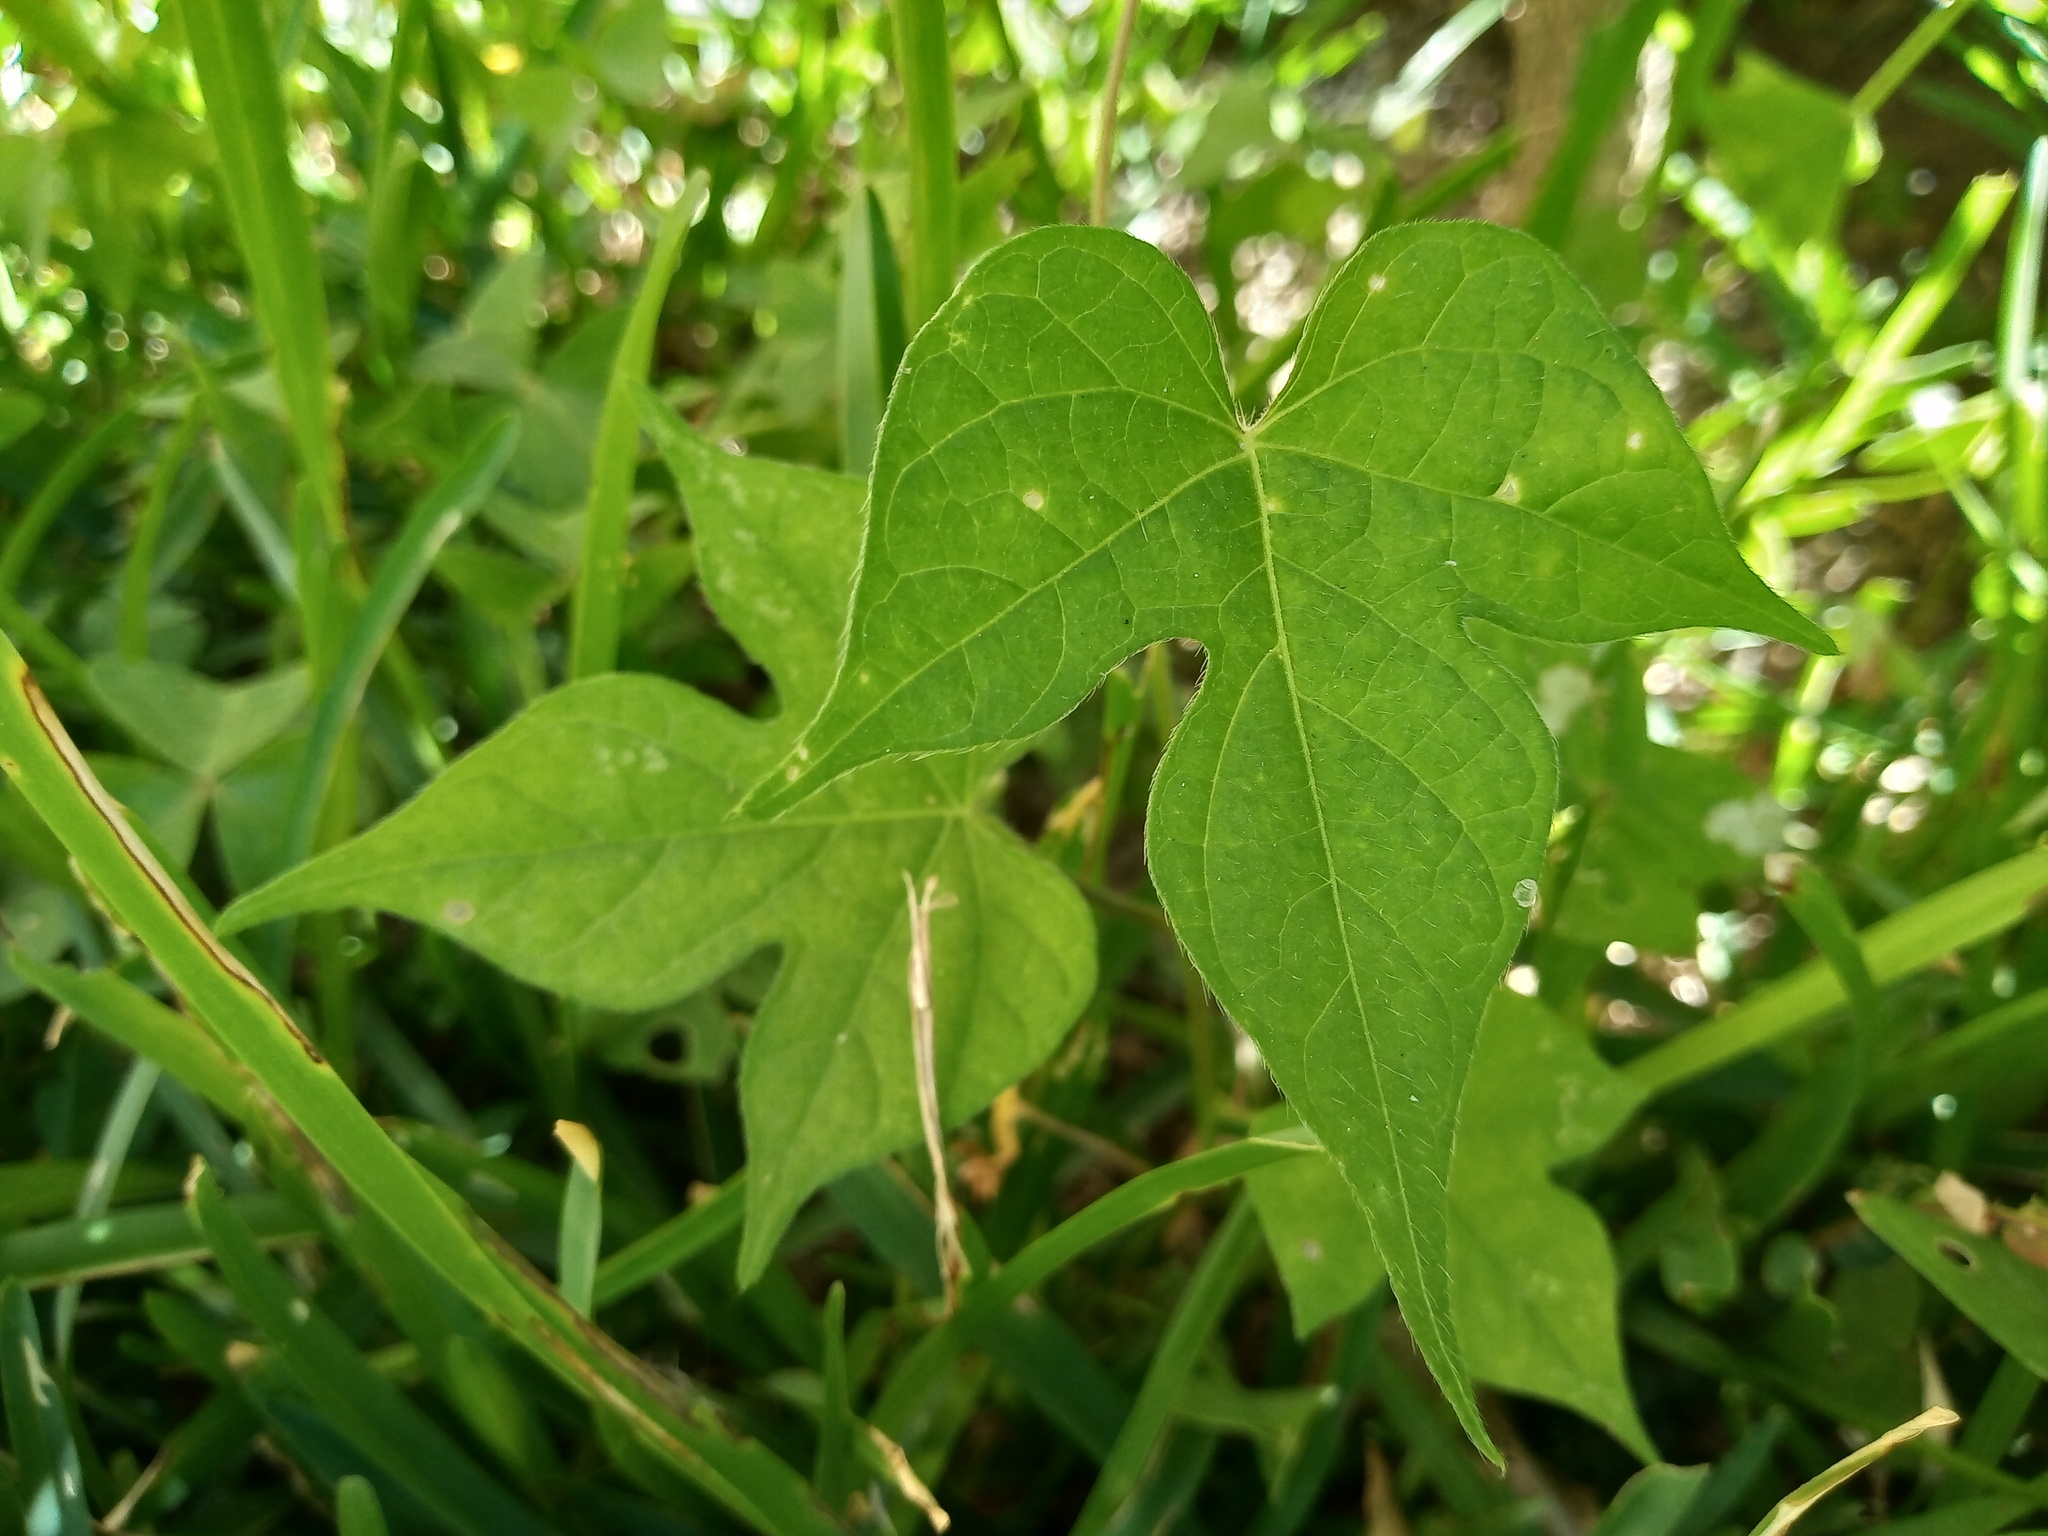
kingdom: Plantae
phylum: Tracheophyta
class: Magnoliopsida
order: Solanales
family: Convolvulaceae
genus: Ipomoea
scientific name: Ipomoea hederacea
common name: Ivy-leaved morning-glory
